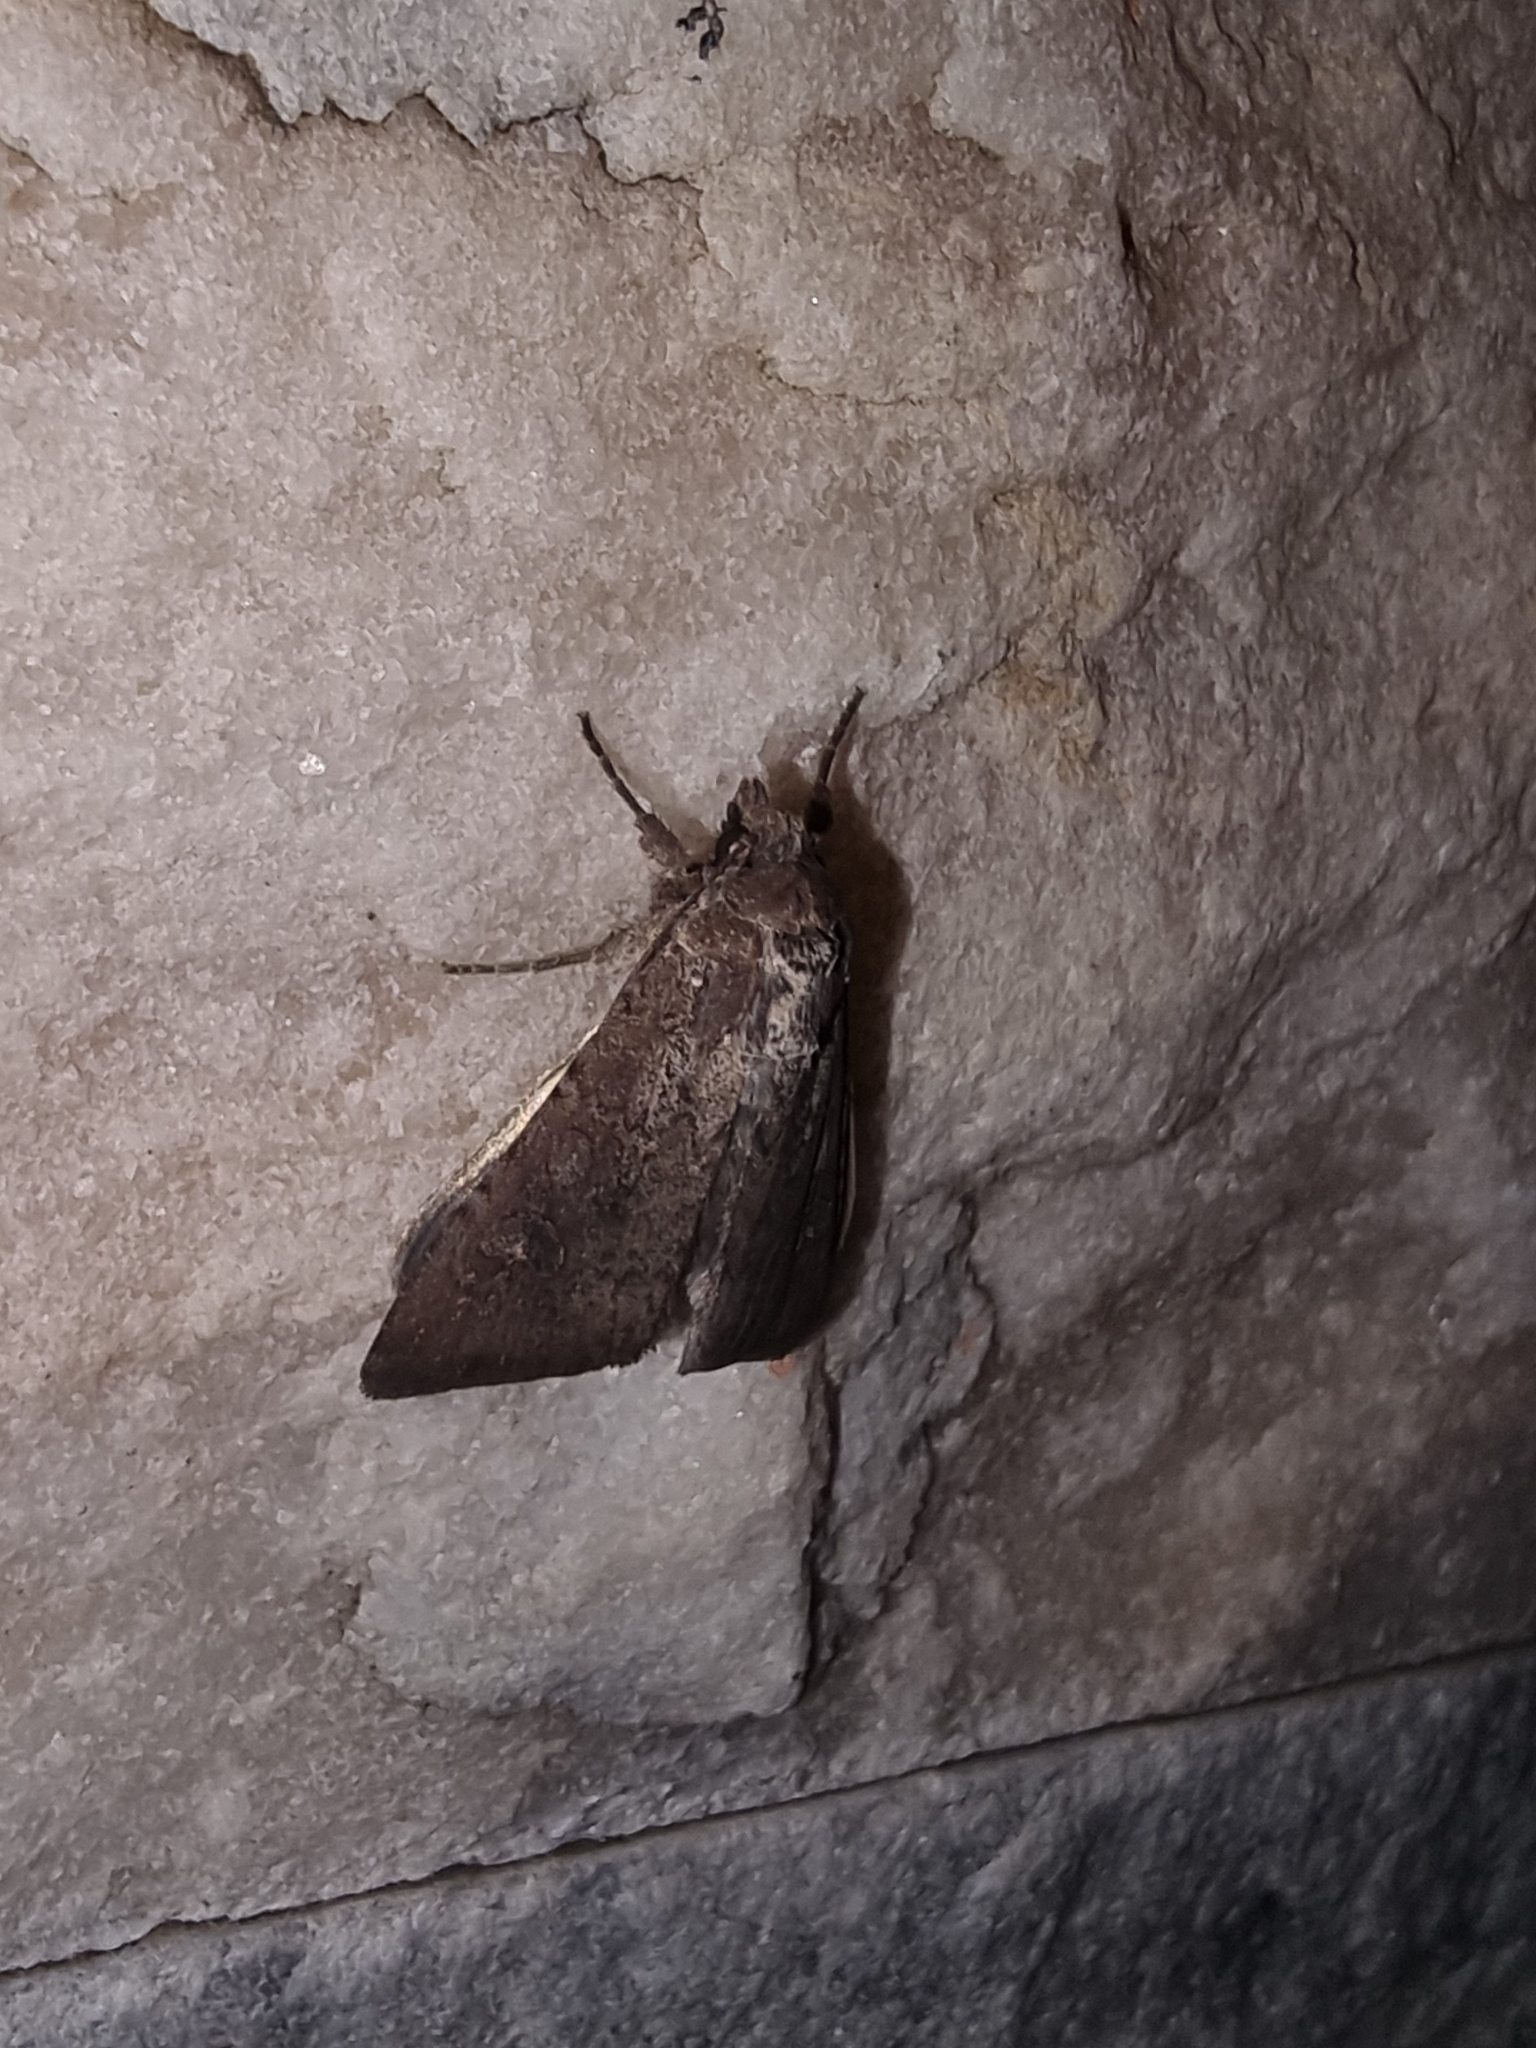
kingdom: Animalia
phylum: Arthropoda
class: Insecta
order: Lepidoptera
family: Noctuidae
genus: Peridroma
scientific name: Peridroma saucia
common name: Pearly underwing
